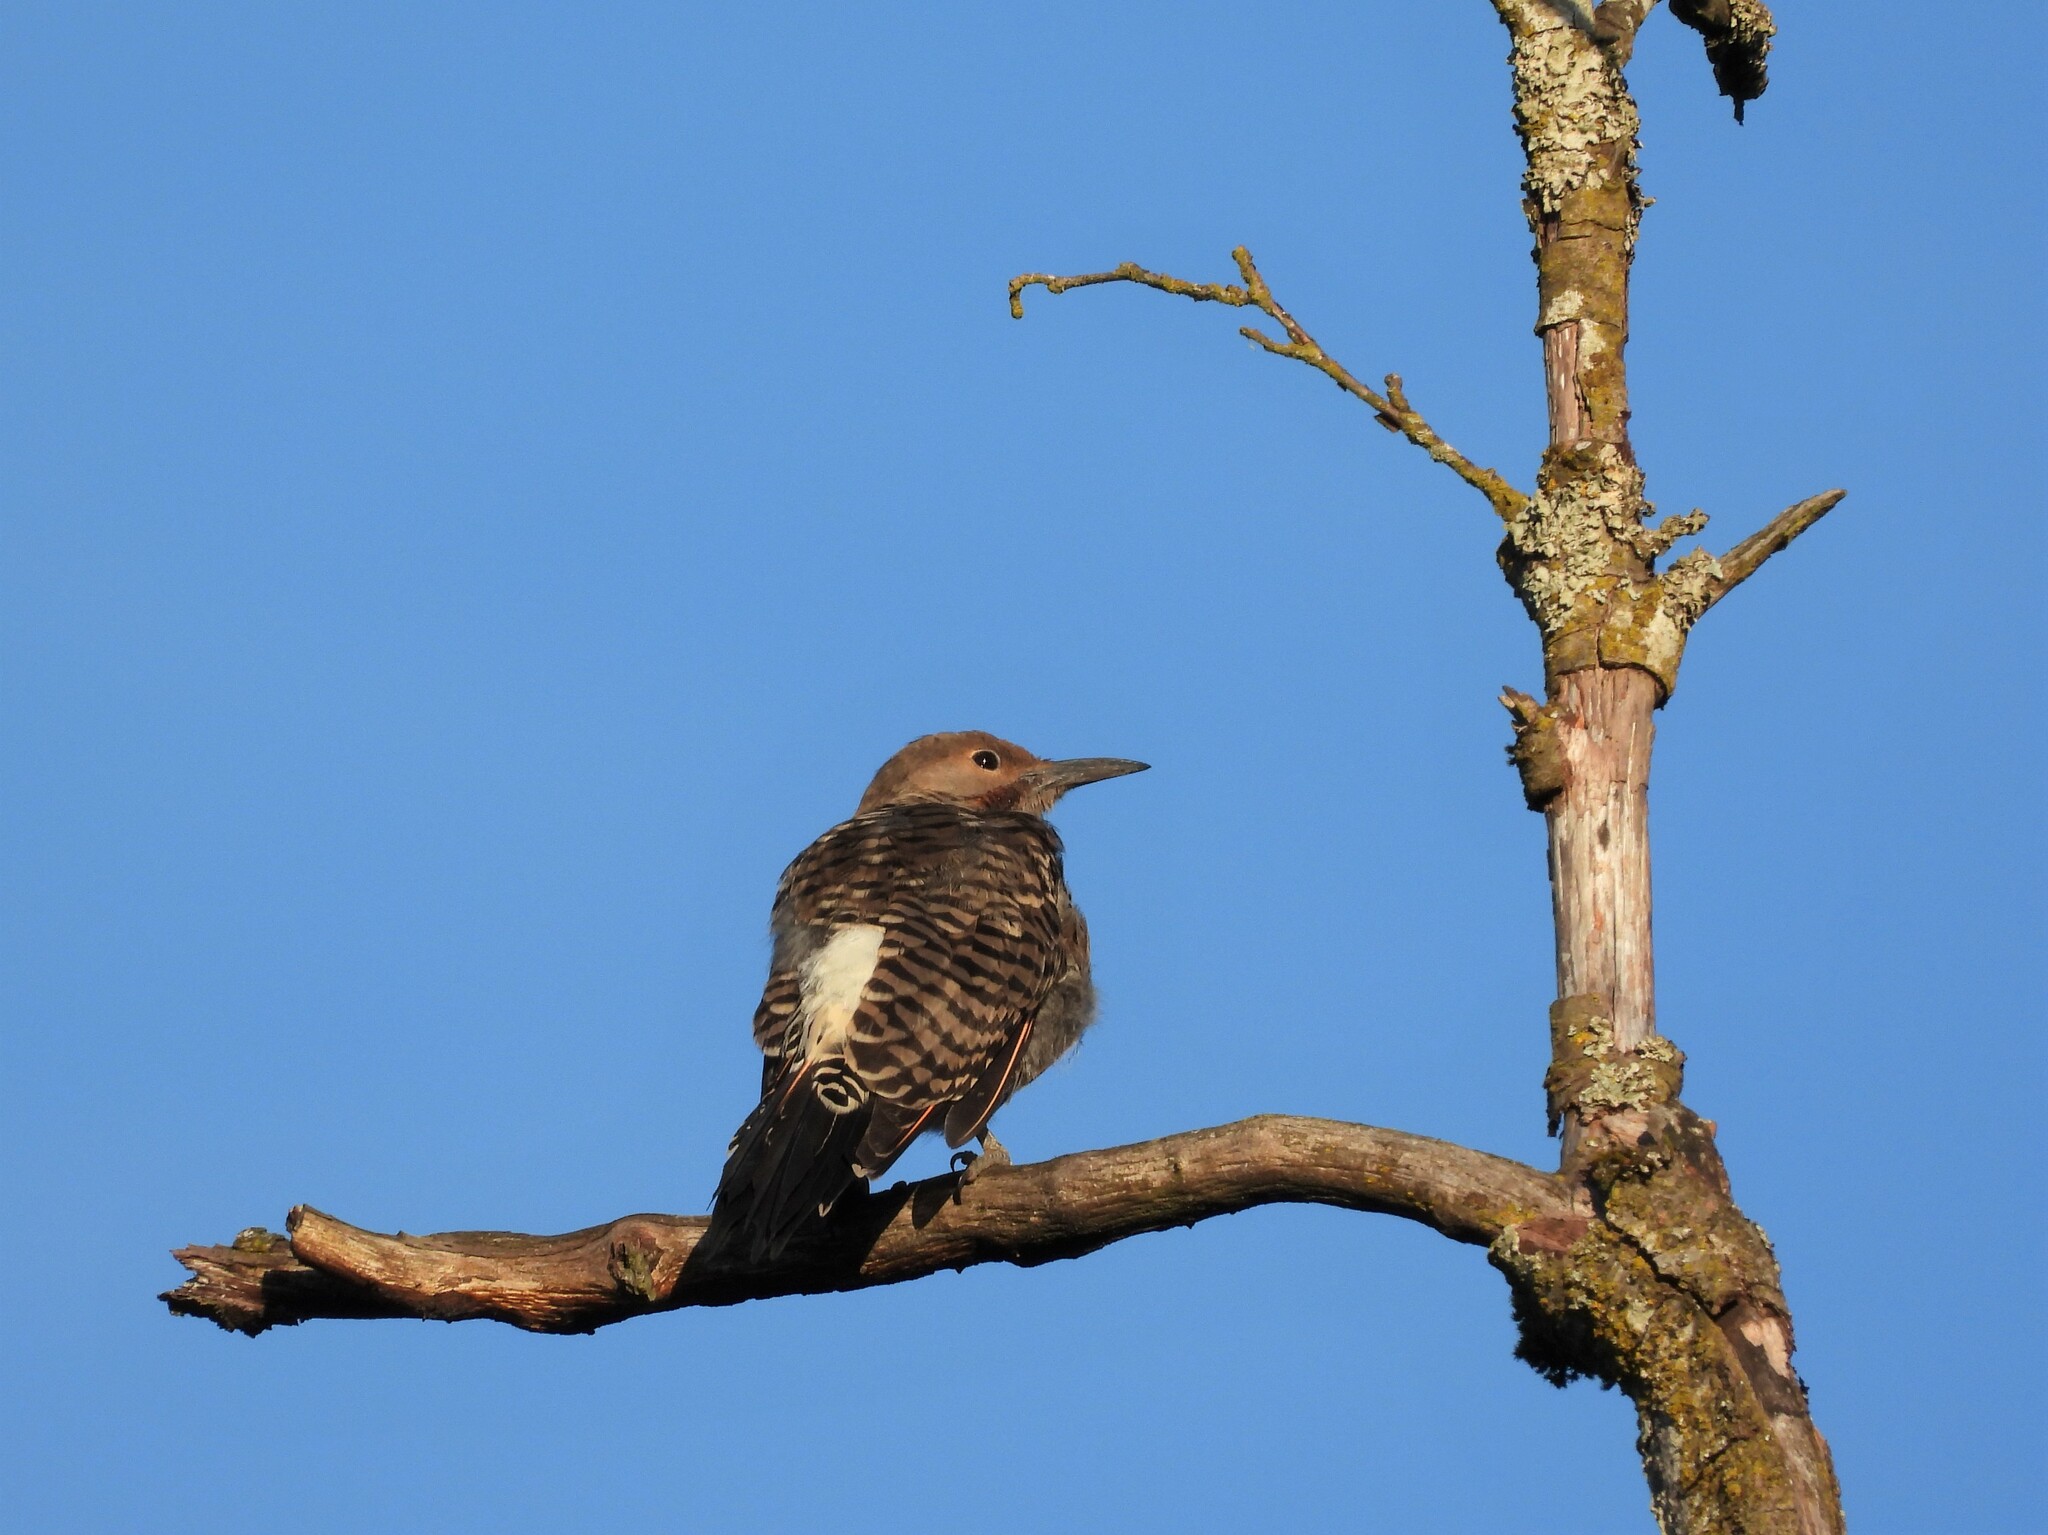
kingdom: Animalia
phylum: Chordata
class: Aves
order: Piciformes
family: Picidae
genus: Colaptes
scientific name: Colaptes auratus
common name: Northern flicker
